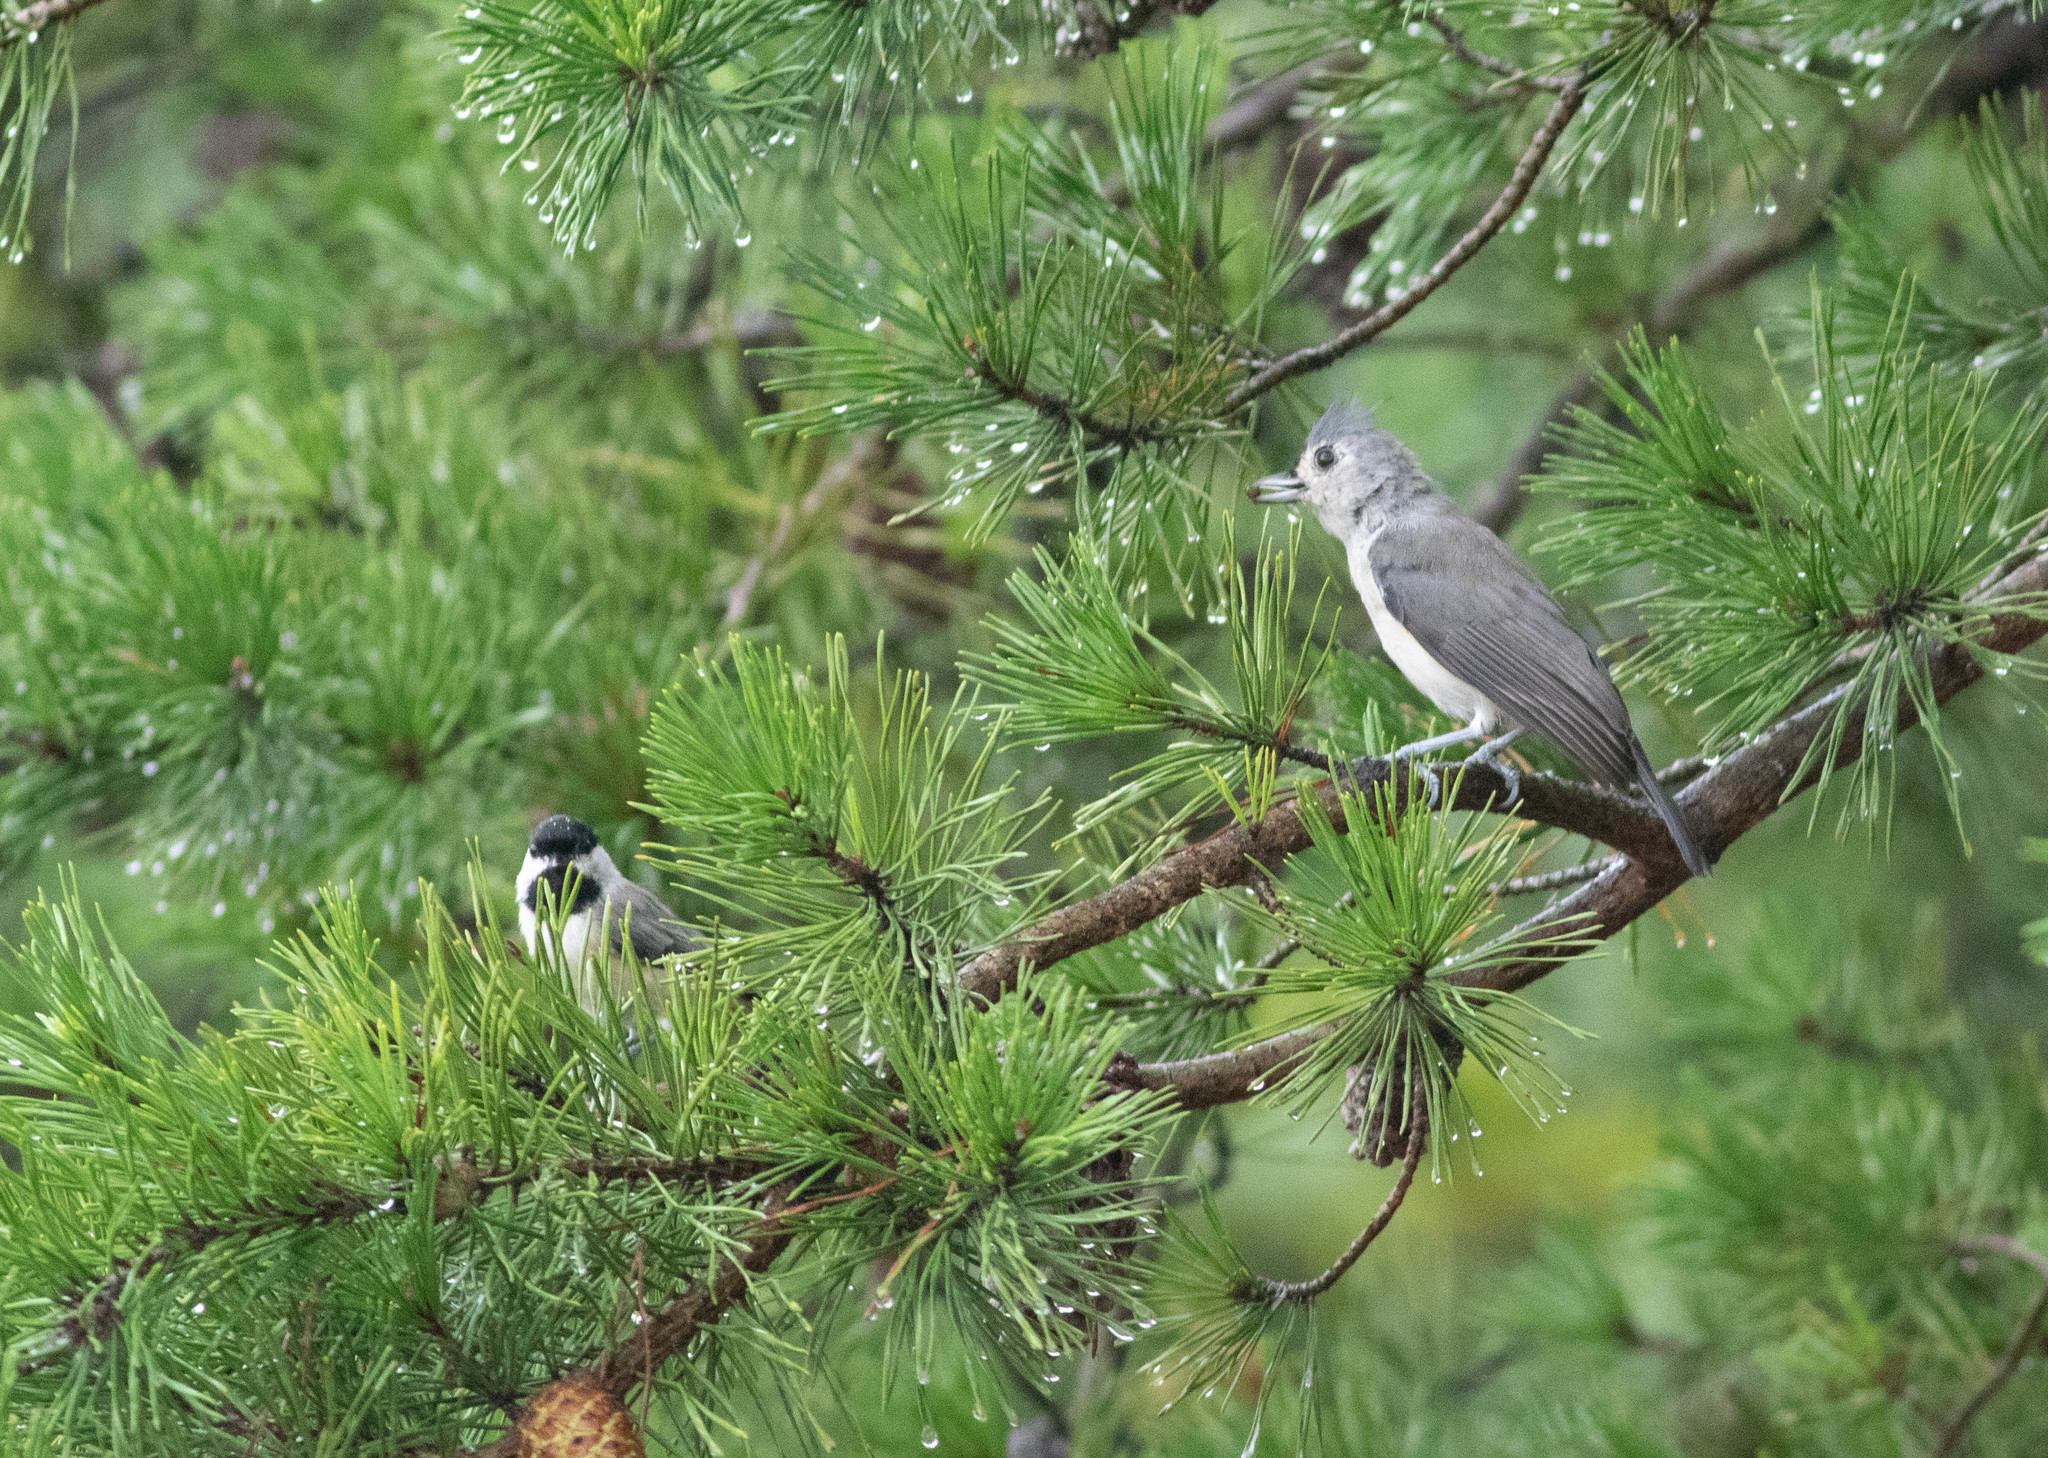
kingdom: Animalia
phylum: Chordata
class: Aves
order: Passeriformes
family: Paridae
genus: Baeolophus
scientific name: Baeolophus bicolor
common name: Tufted titmouse
